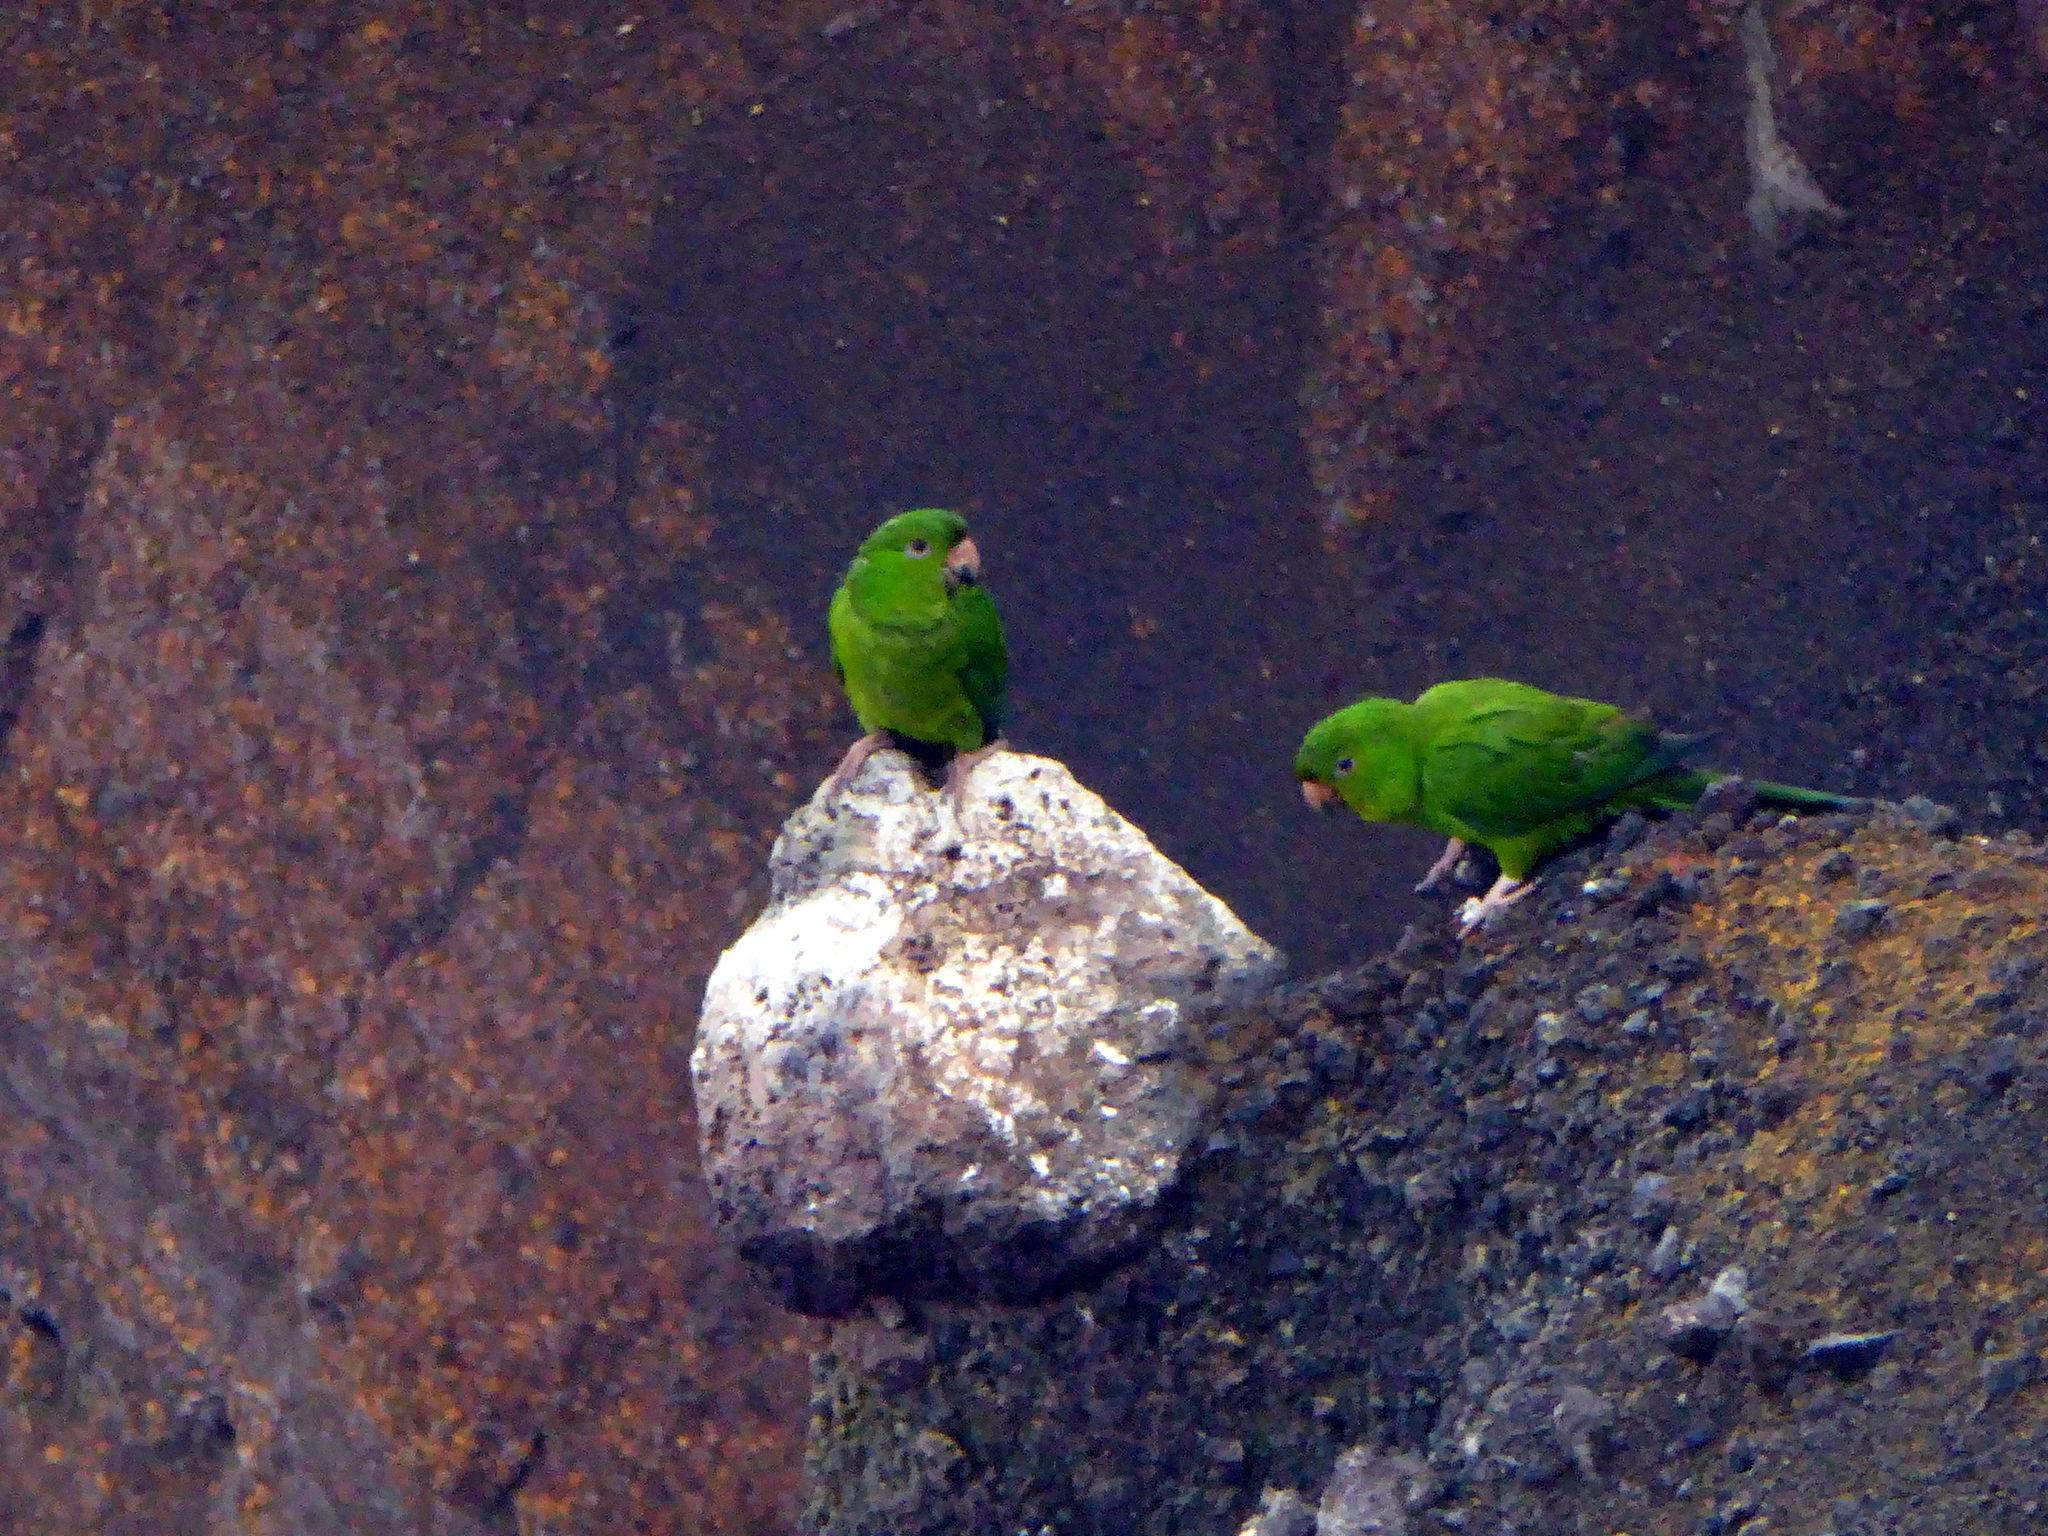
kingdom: Animalia
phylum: Chordata
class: Aves
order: Psittaciformes
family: Psittacidae
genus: Aratinga
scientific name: Aratinga strenua
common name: Pacific parakeet
